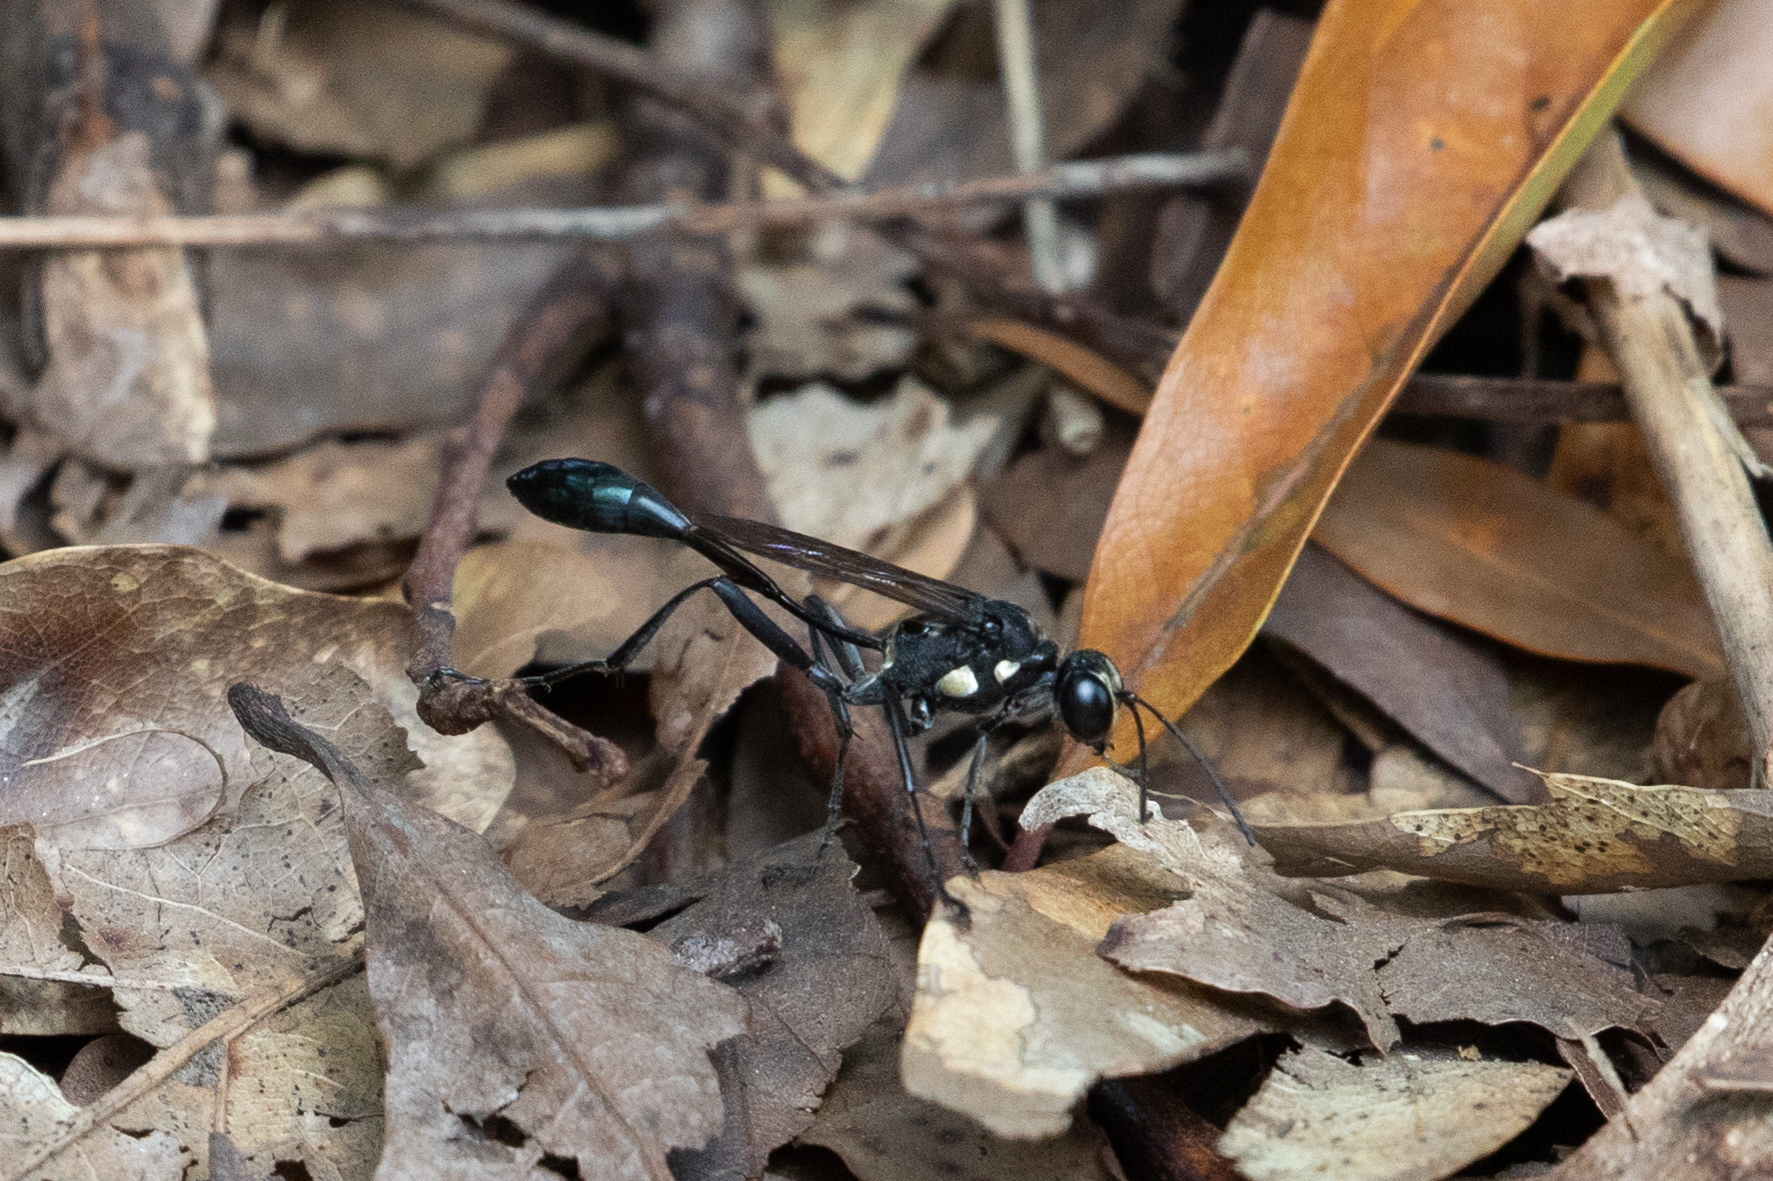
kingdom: Animalia
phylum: Arthropoda
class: Insecta
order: Hymenoptera
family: Sphecidae
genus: Eremnophila
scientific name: Eremnophila aureonotata
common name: Gold-marked thread-waisted wasp
